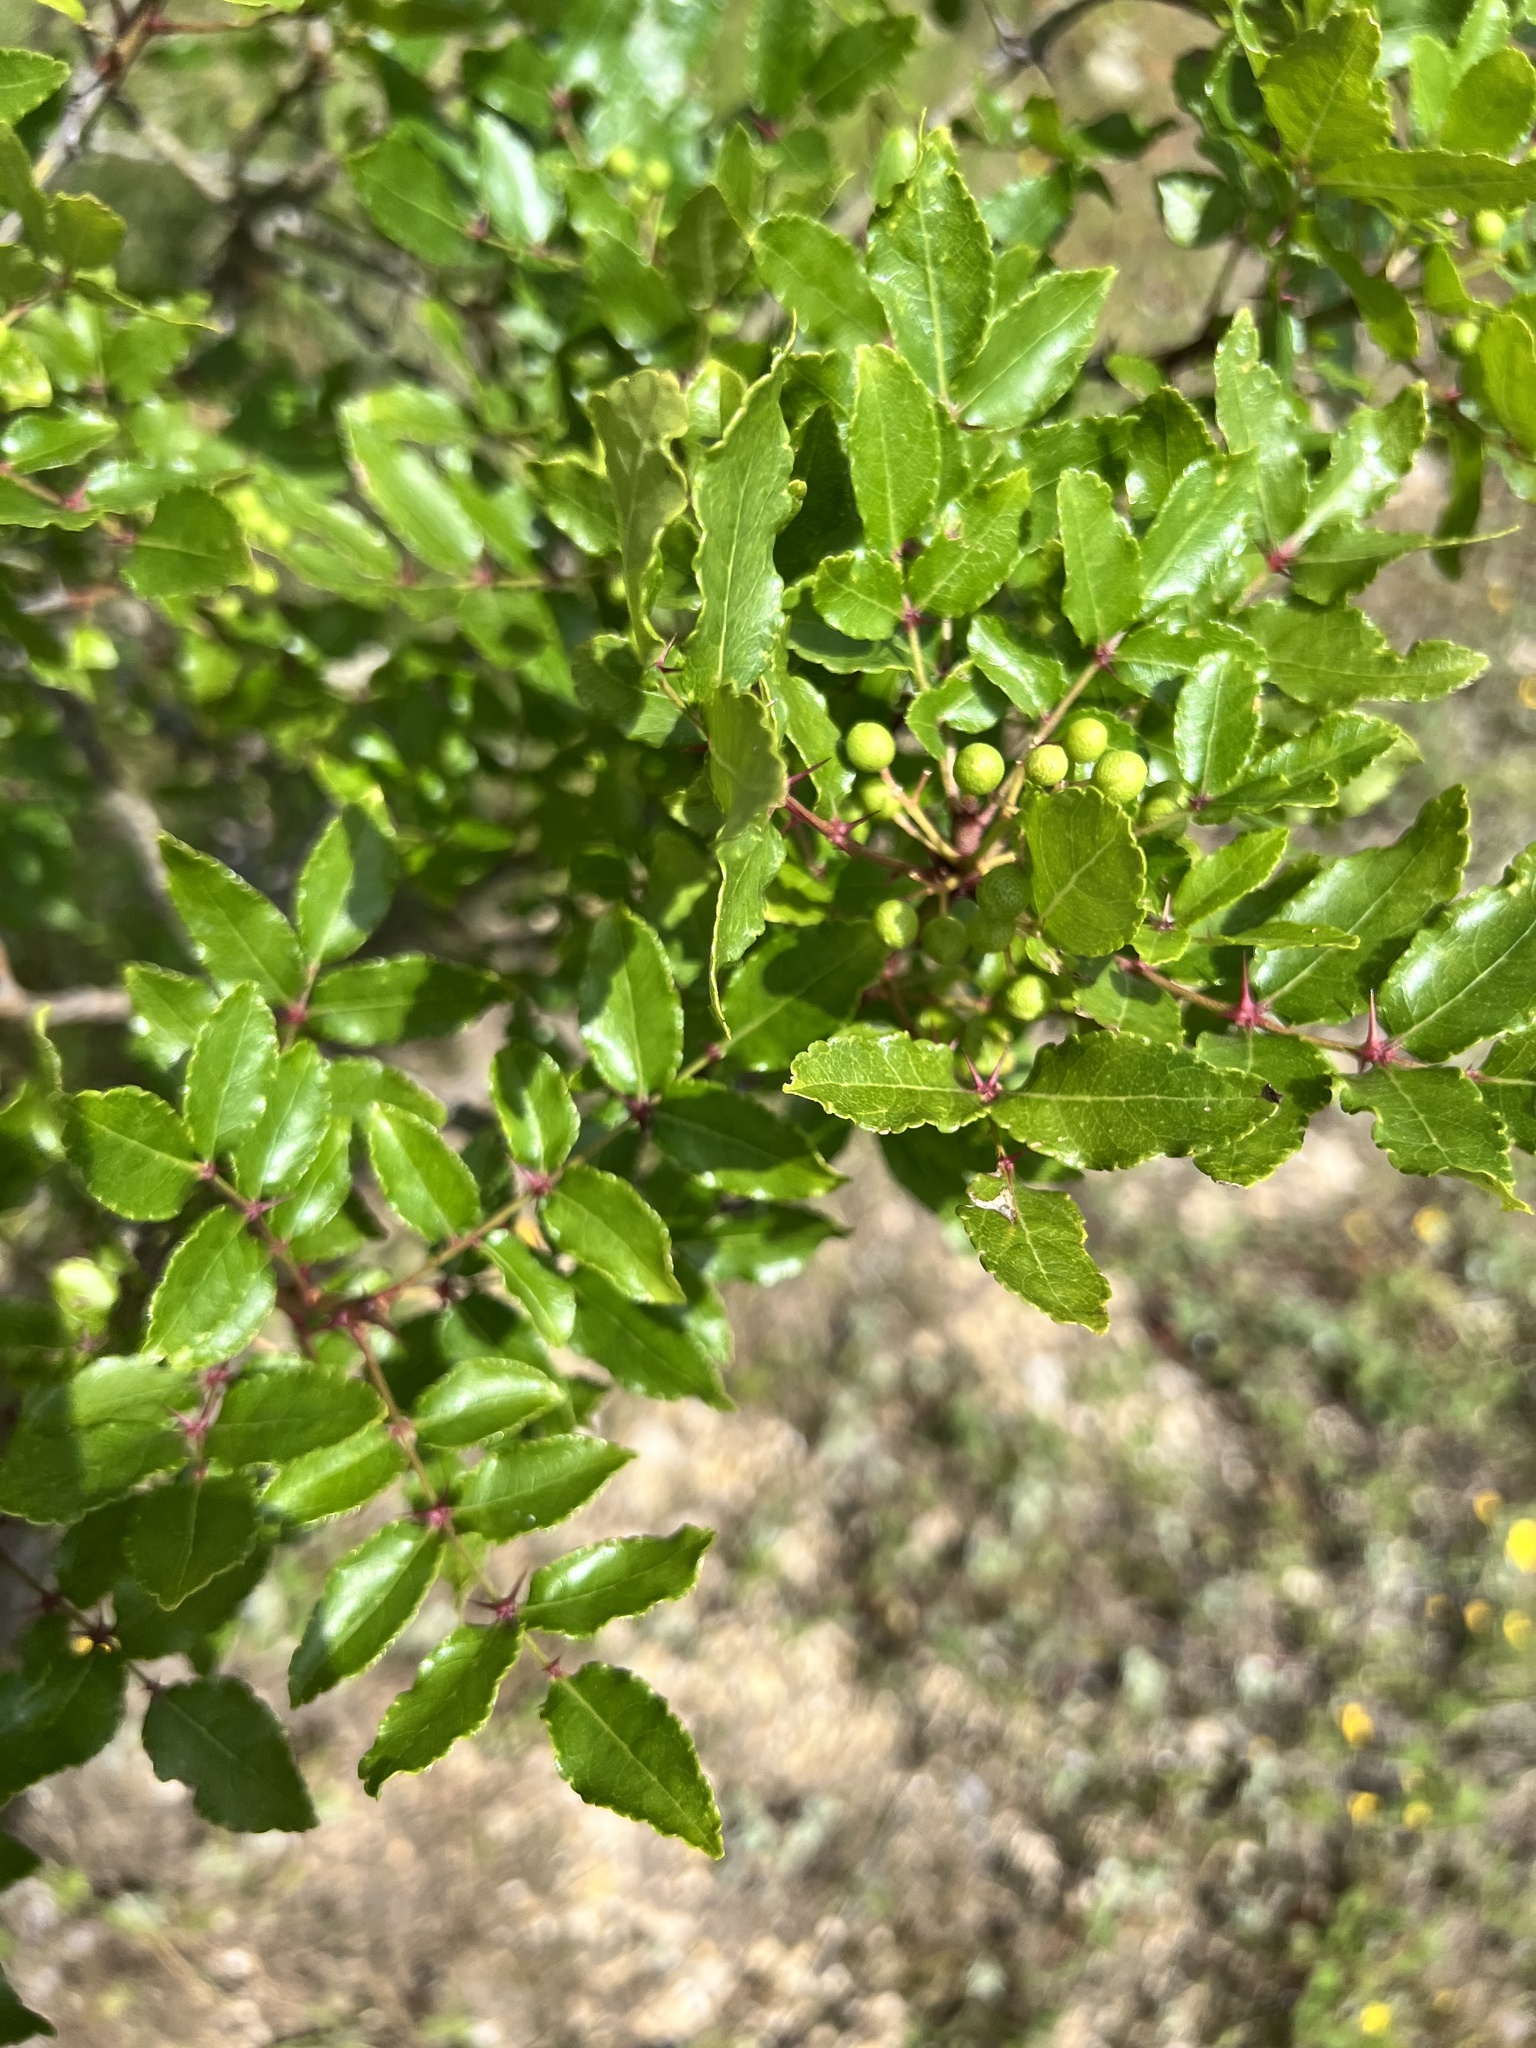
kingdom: Plantae
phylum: Tracheophyta
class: Magnoliopsida
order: Sapindales
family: Rutaceae
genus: Zanthoxylum
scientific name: Zanthoxylum clava-herculis
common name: Hercules'-club
